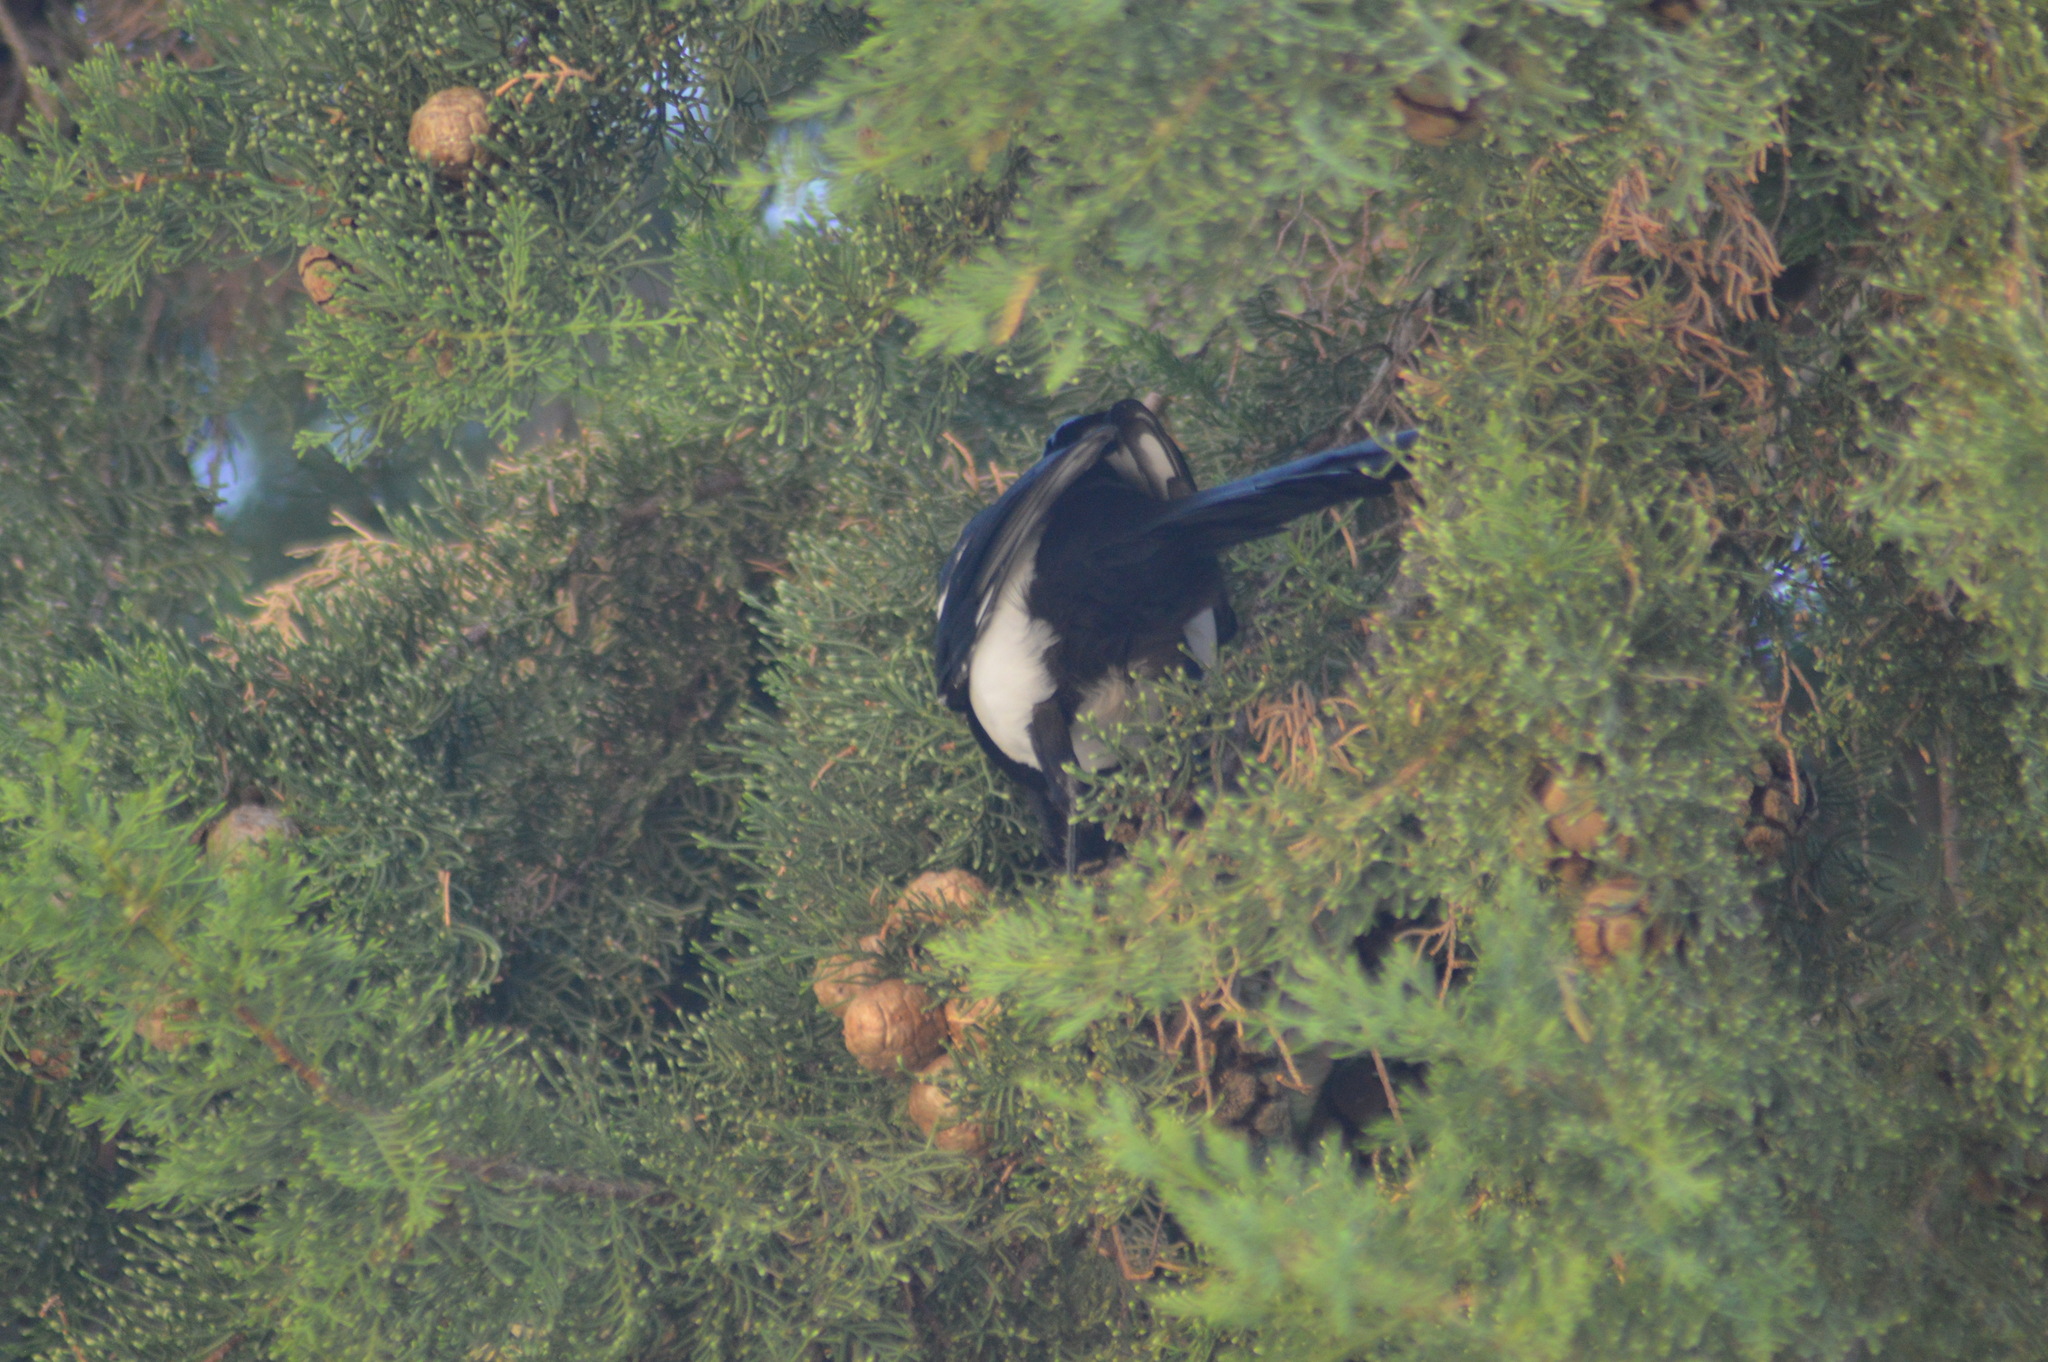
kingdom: Animalia
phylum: Chordata
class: Aves
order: Passeriformes
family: Corvidae
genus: Pica
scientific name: Pica pica
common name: Eurasian magpie
